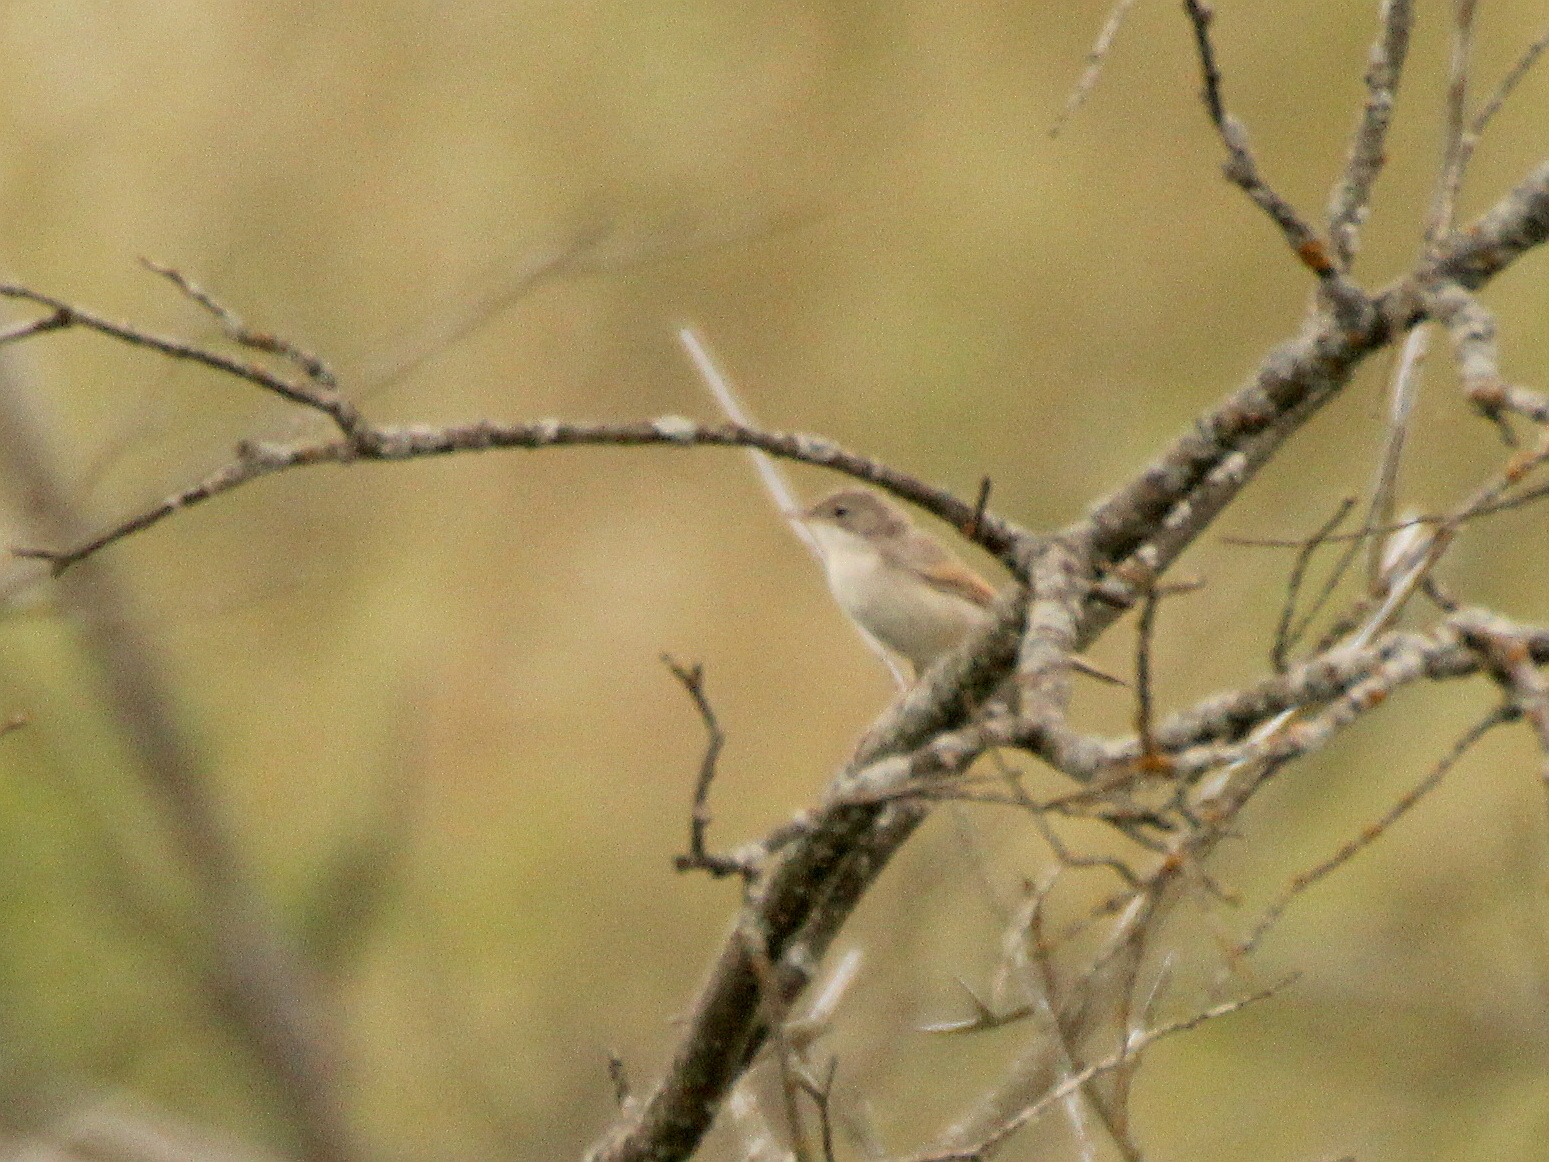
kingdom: Animalia
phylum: Chordata
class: Aves
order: Passeriformes
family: Sylviidae
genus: Sylvia
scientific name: Sylvia communis
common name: Common whitethroat
